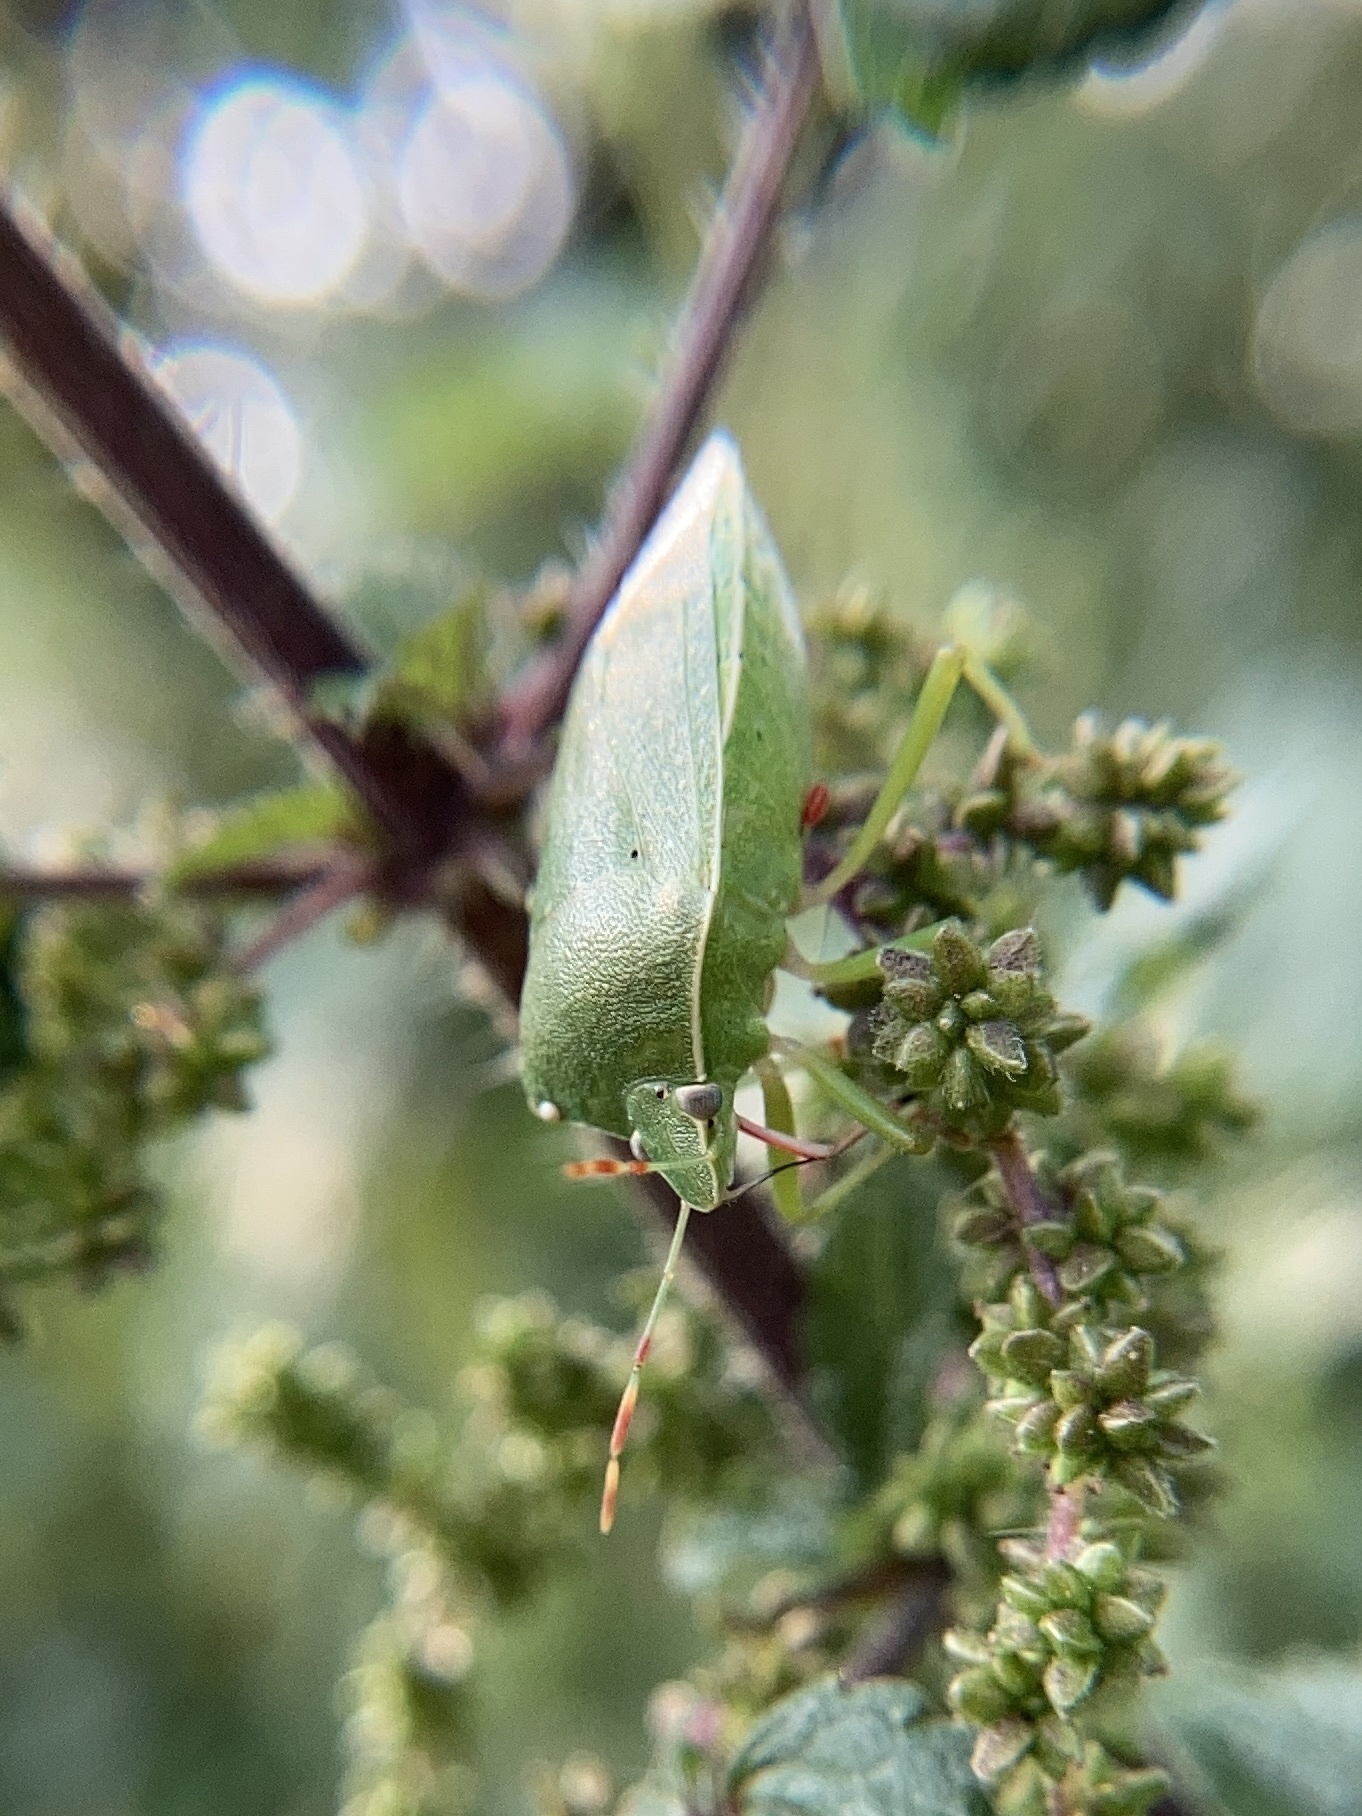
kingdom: Animalia
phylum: Arthropoda
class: Insecta
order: Hemiptera
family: Pentatomidae
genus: Nezara
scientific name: Nezara viridula
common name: Southern green stink bug
